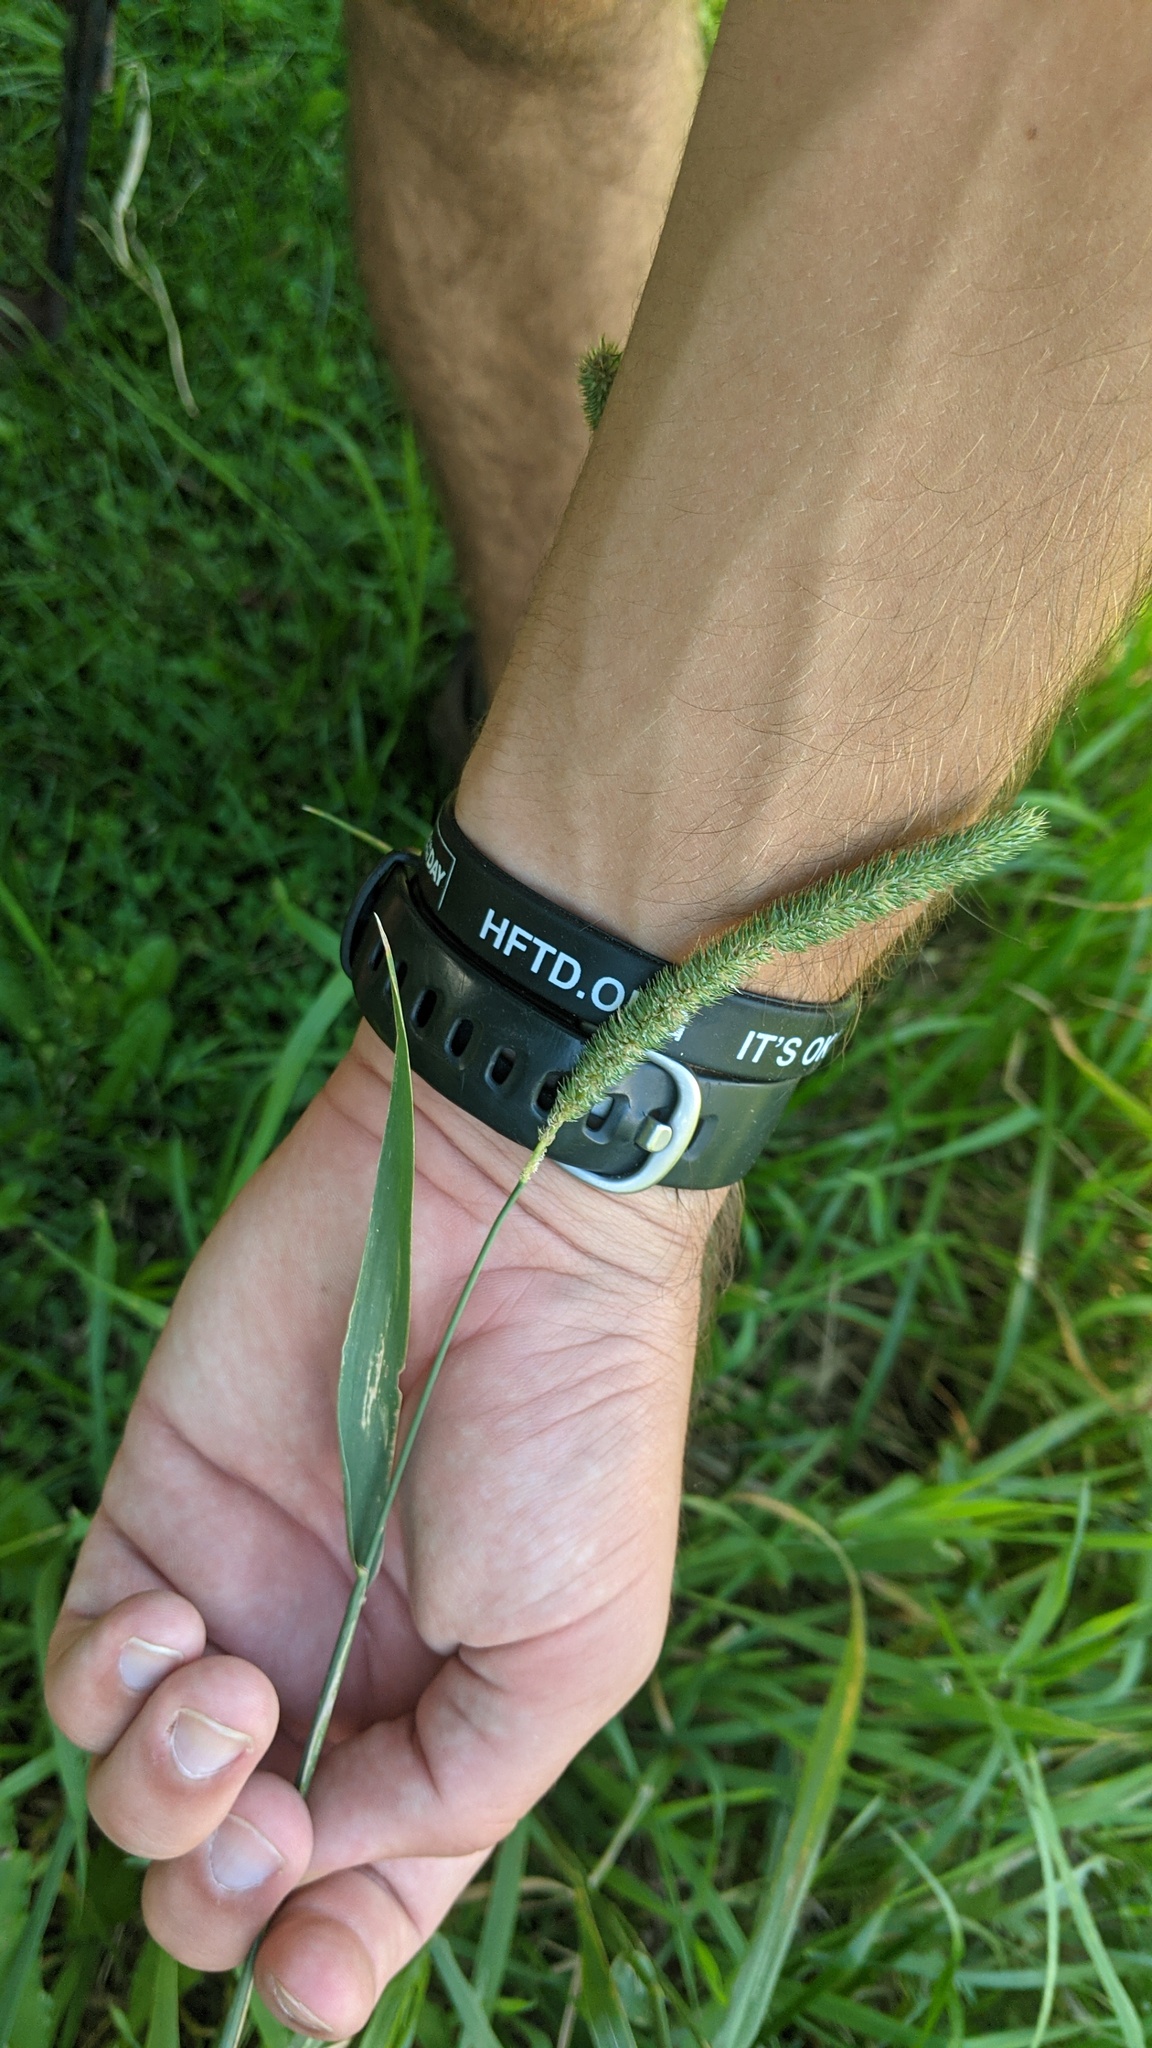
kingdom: Plantae
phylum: Tracheophyta
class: Liliopsida
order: Poales
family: Poaceae
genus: Phleum
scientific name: Phleum pratense
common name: Timothy grass
